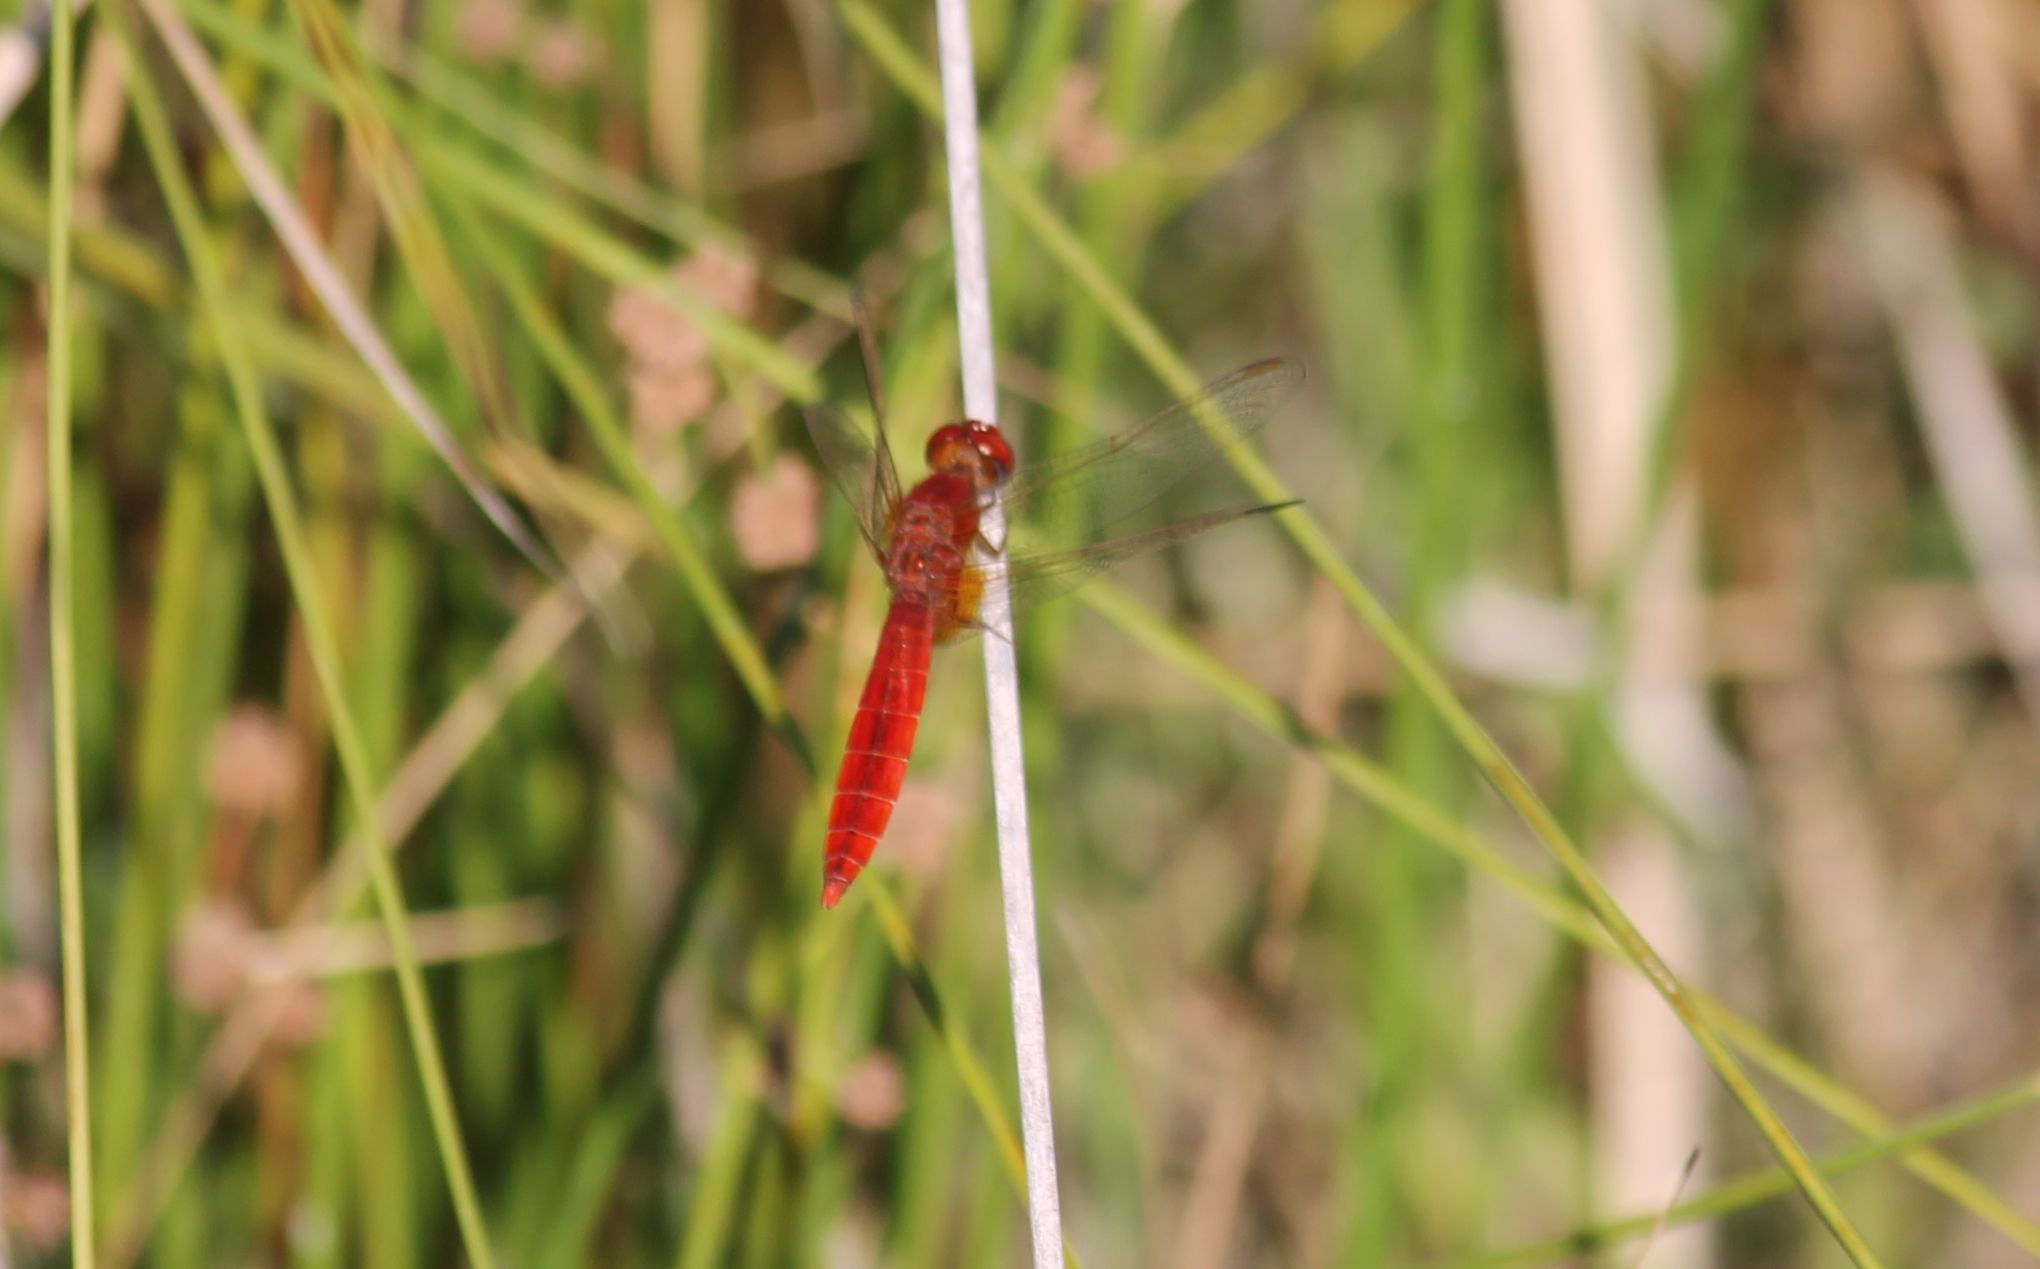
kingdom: Animalia
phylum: Arthropoda
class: Insecta
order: Odonata
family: Libellulidae
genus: Crocothemis
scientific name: Crocothemis erythraea
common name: Scarlet dragonfly
